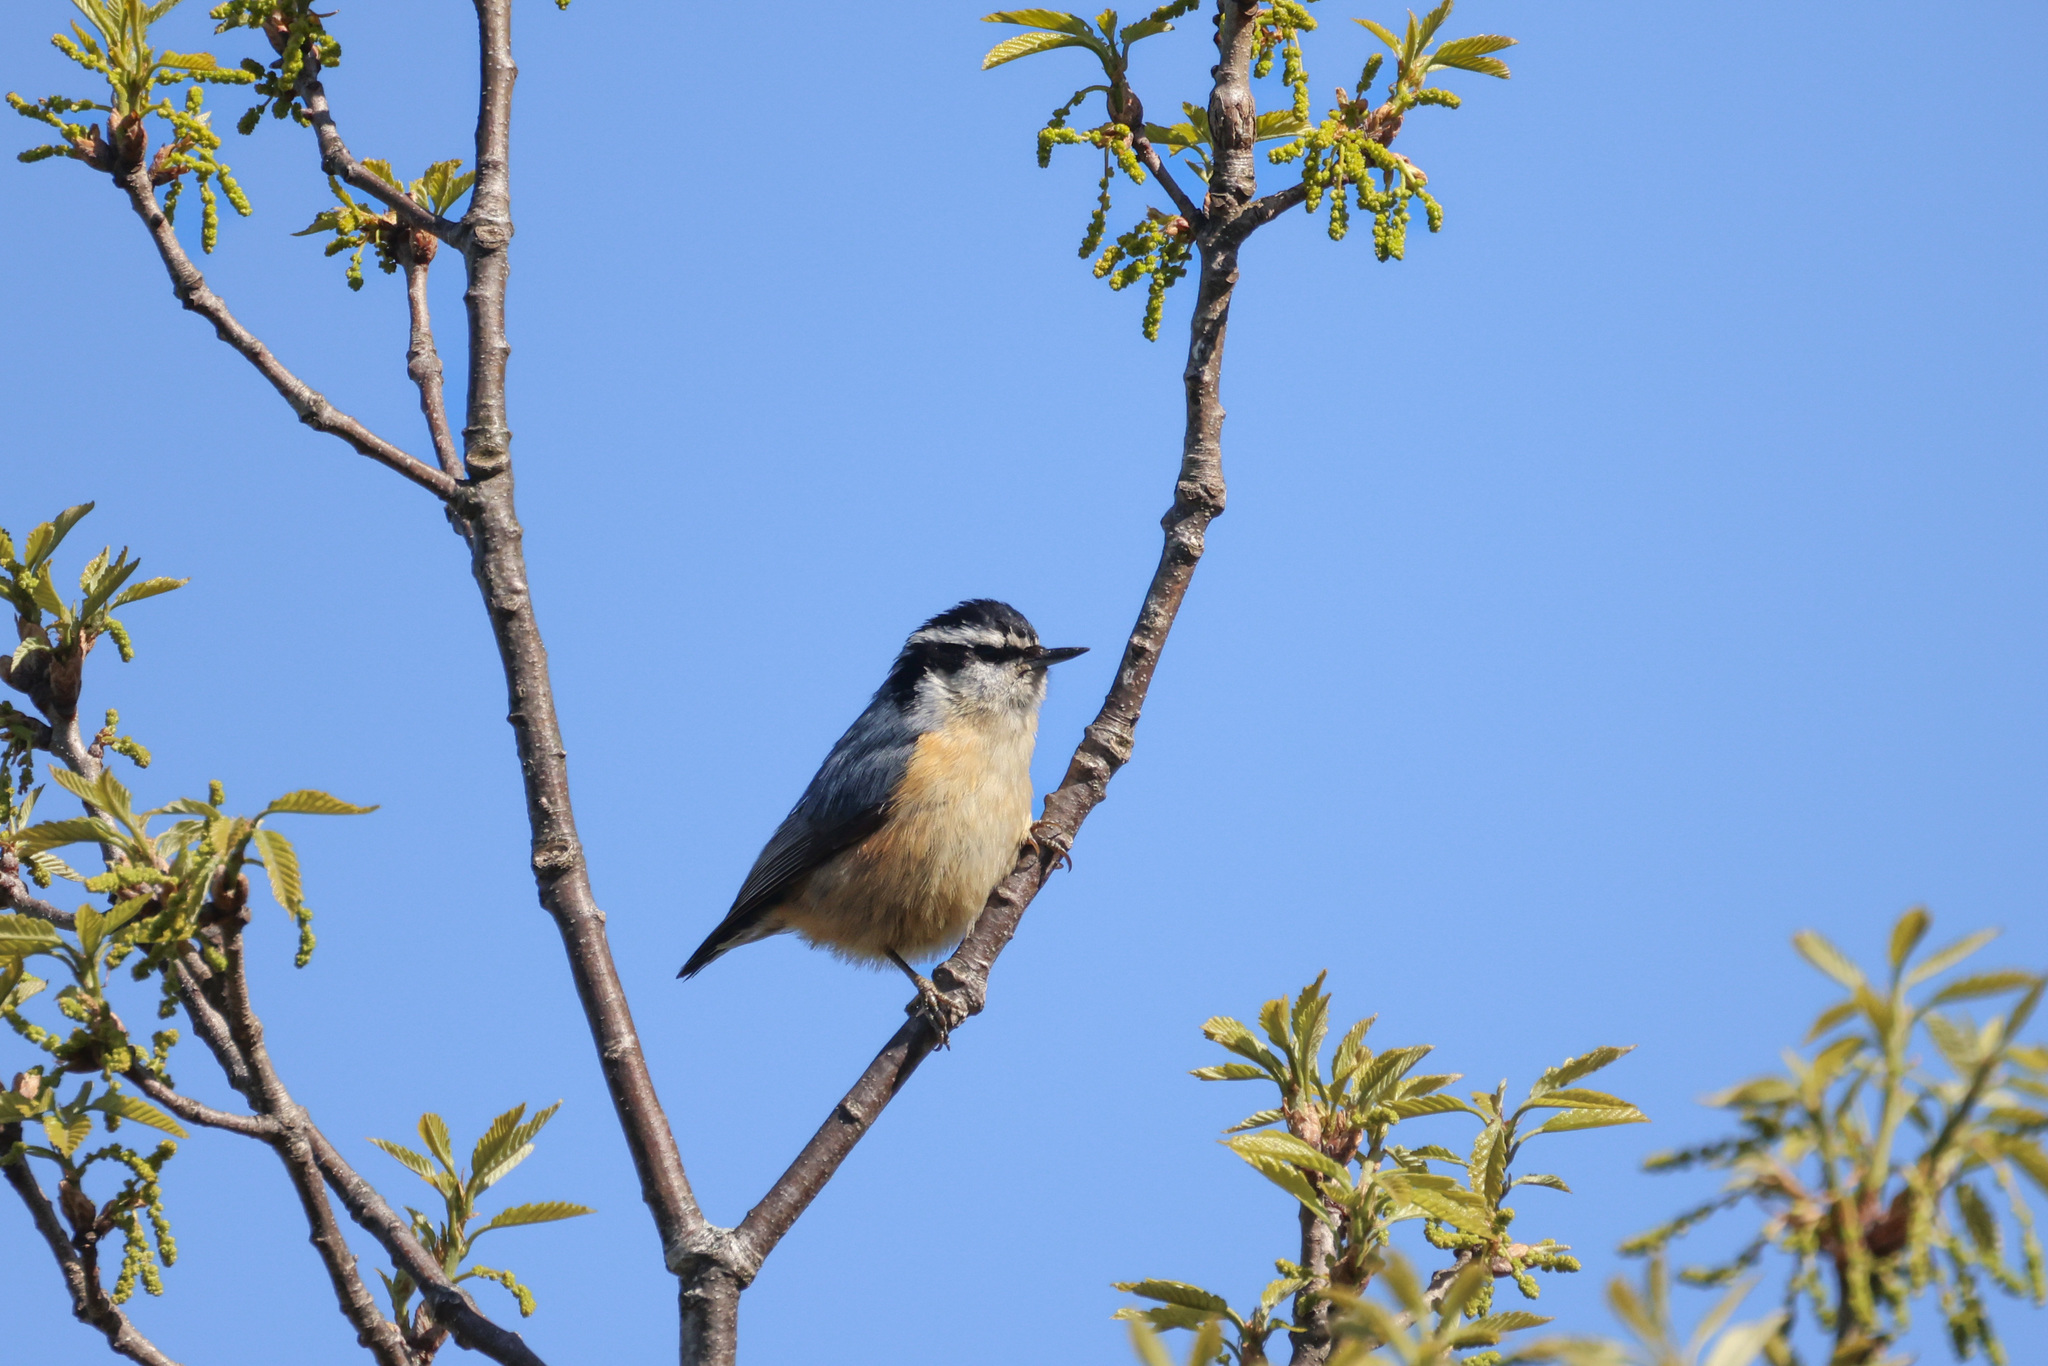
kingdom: Animalia
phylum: Chordata
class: Aves
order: Passeriformes
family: Sittidae
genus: Sitta
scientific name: Sitta canadensis
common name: Red-breasted nuthatch
